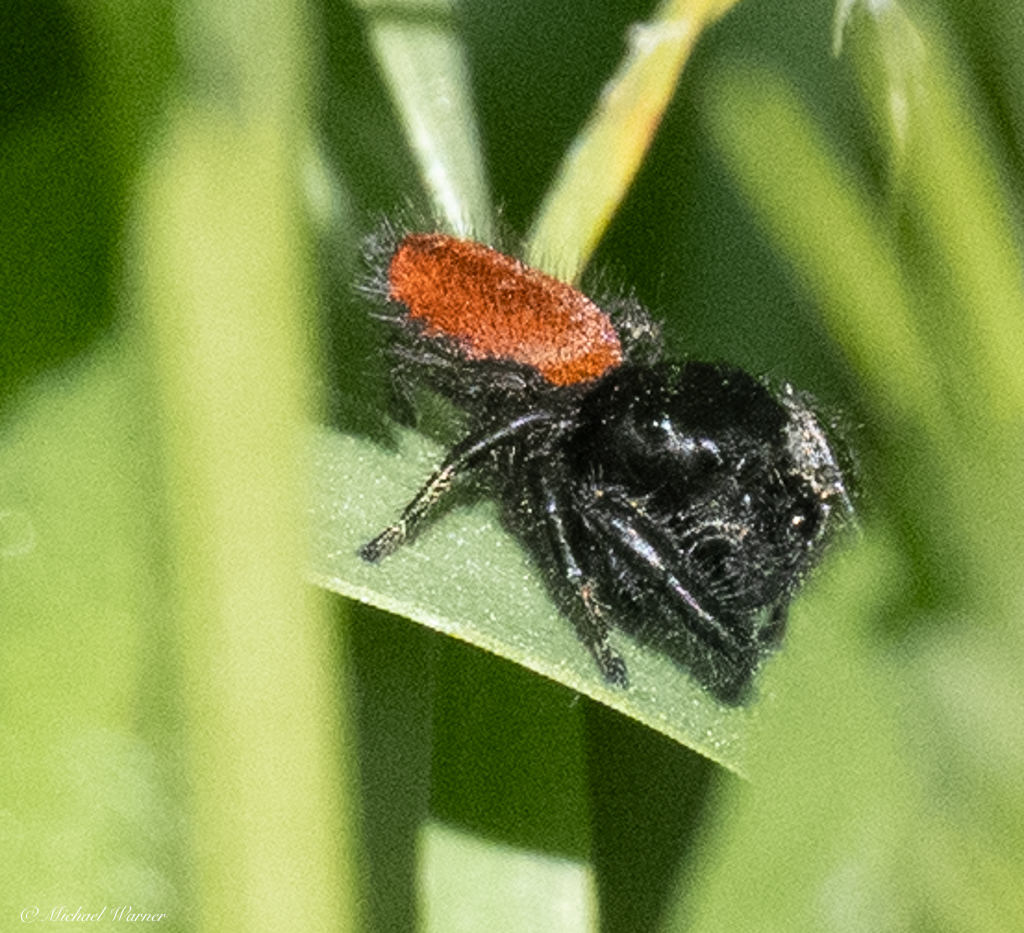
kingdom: Animalia
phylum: Arthropoda
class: Arachnida
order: Araneae
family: Salticidae
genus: Phidippus
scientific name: Phidippus johnsoni
